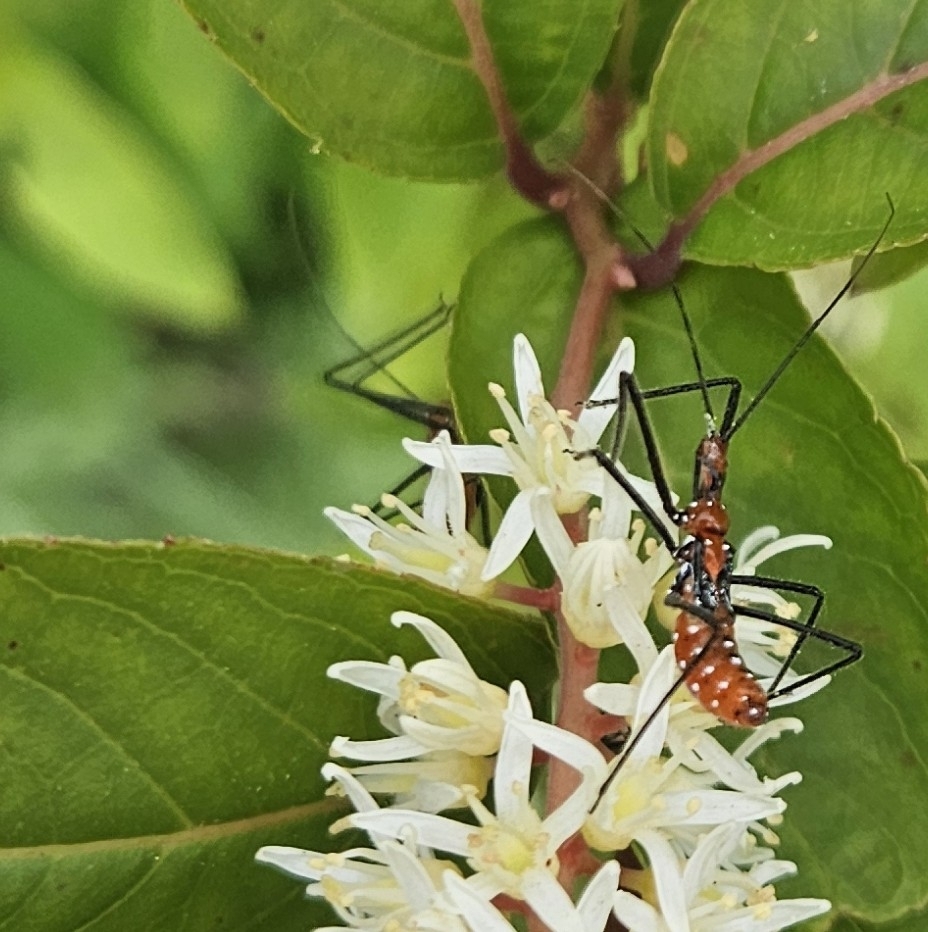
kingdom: Animalia
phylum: Arthropoda
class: Insecta
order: Hemiptera
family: Reduviidae
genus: Zelus
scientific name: Zelus longipes
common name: Milkweed assassin bug
